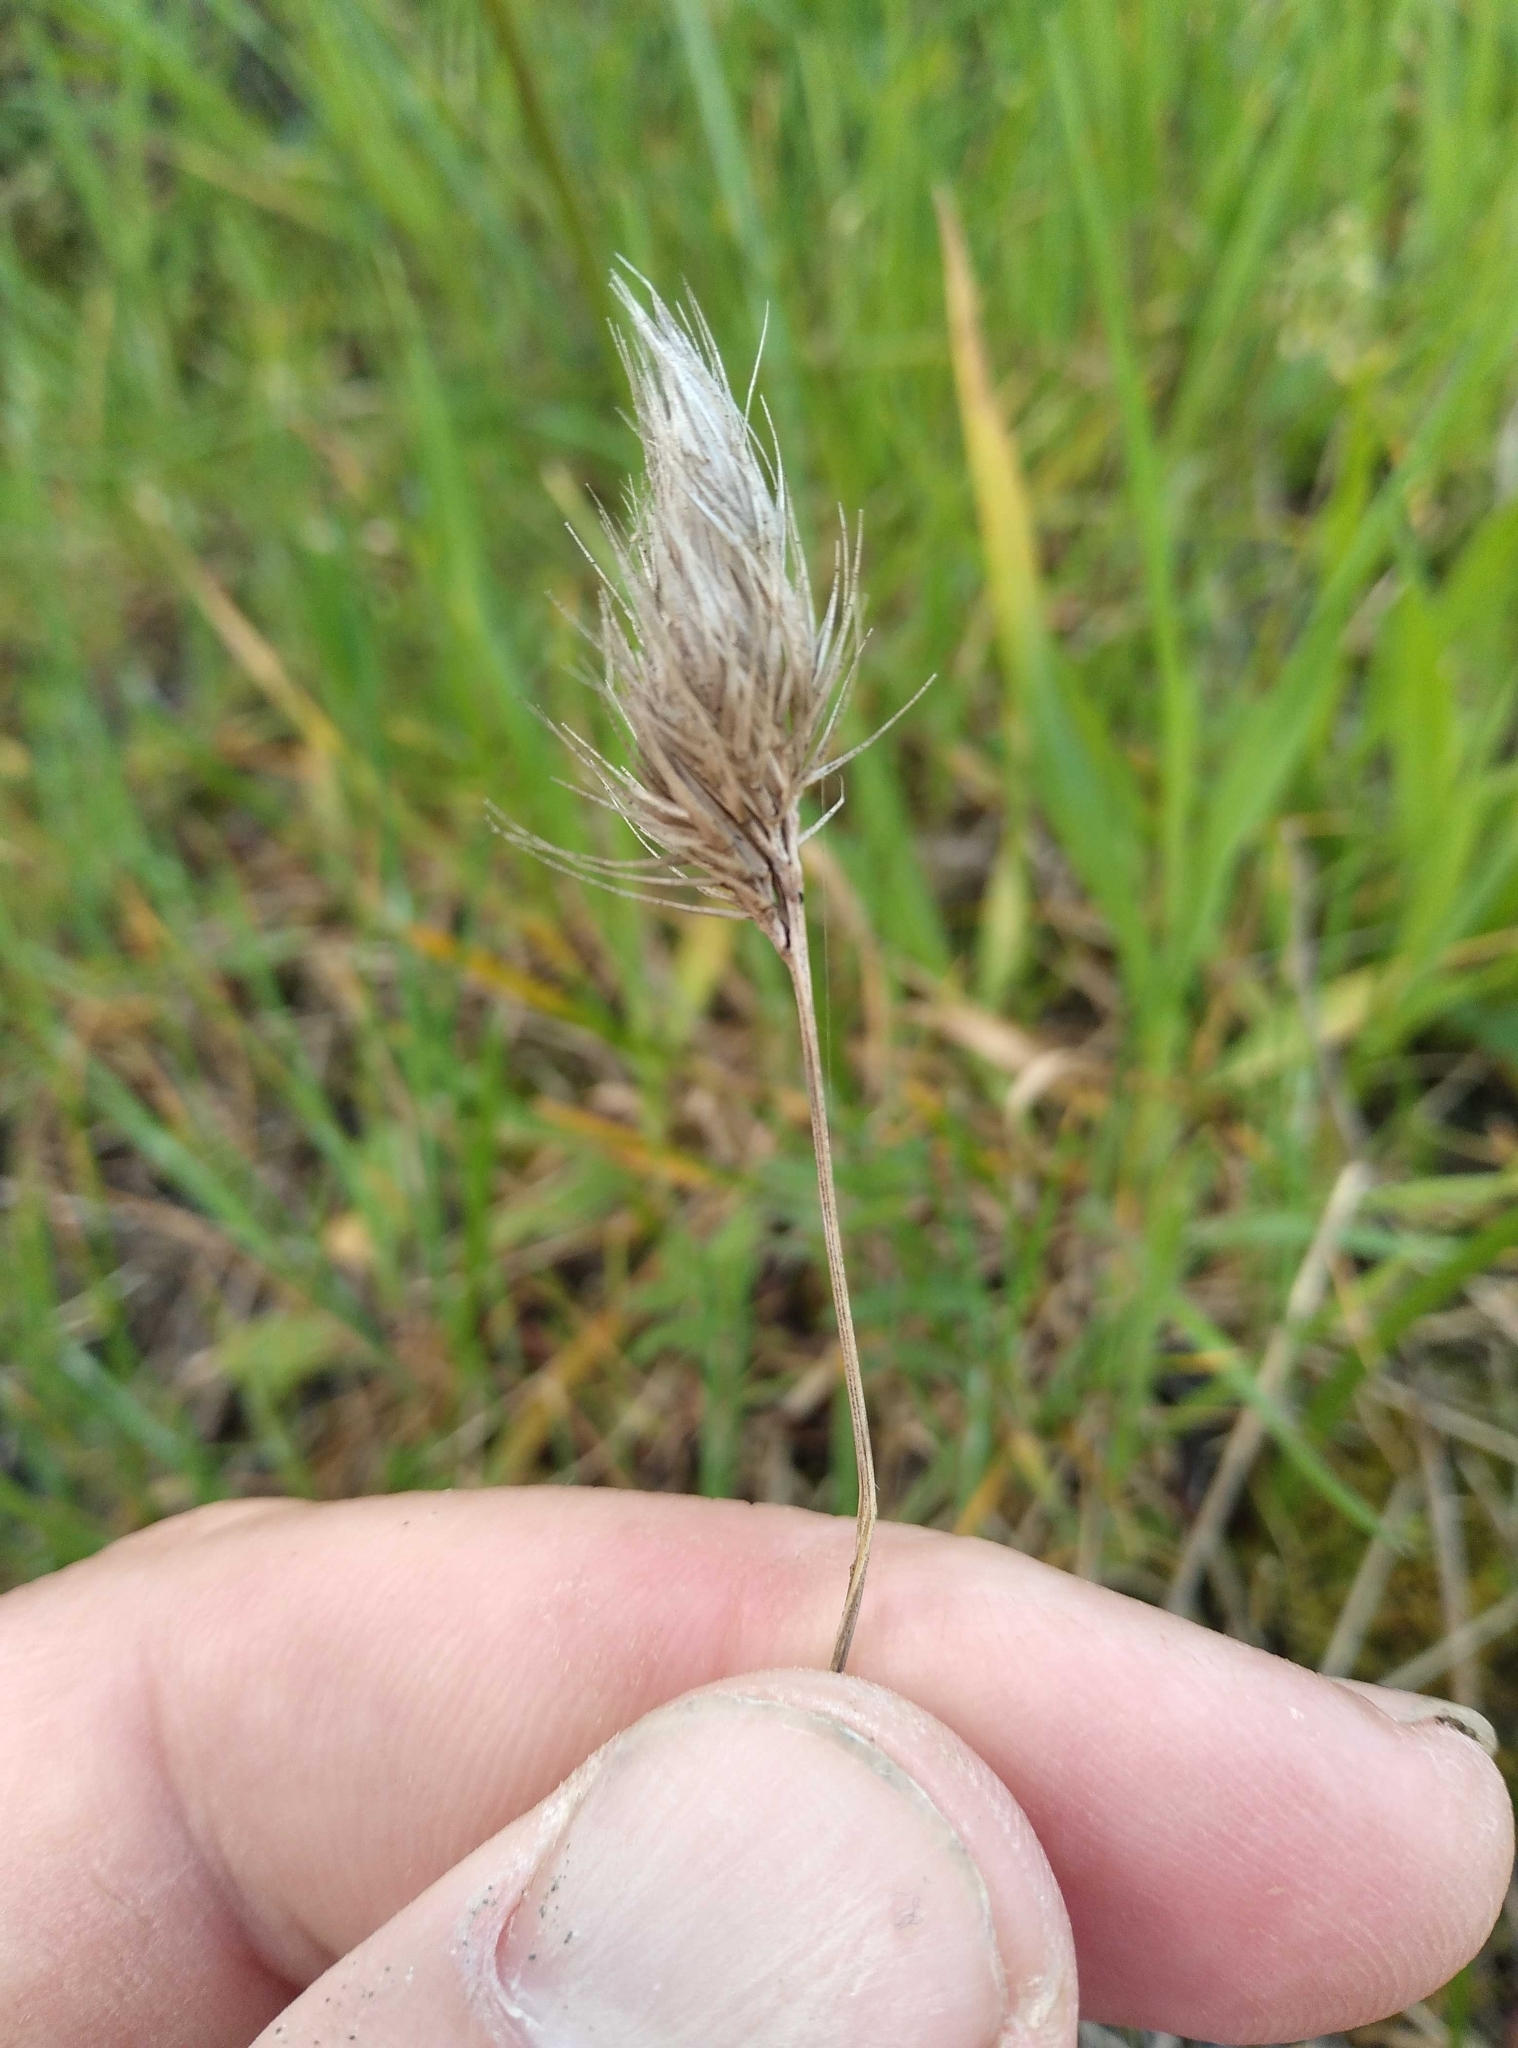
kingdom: Plantae
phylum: Tracheophyta
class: Liliopsida
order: Poales
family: Poaceae
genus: Cynosurus
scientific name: Cynosurus echinatus
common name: Rough dog's-tail
